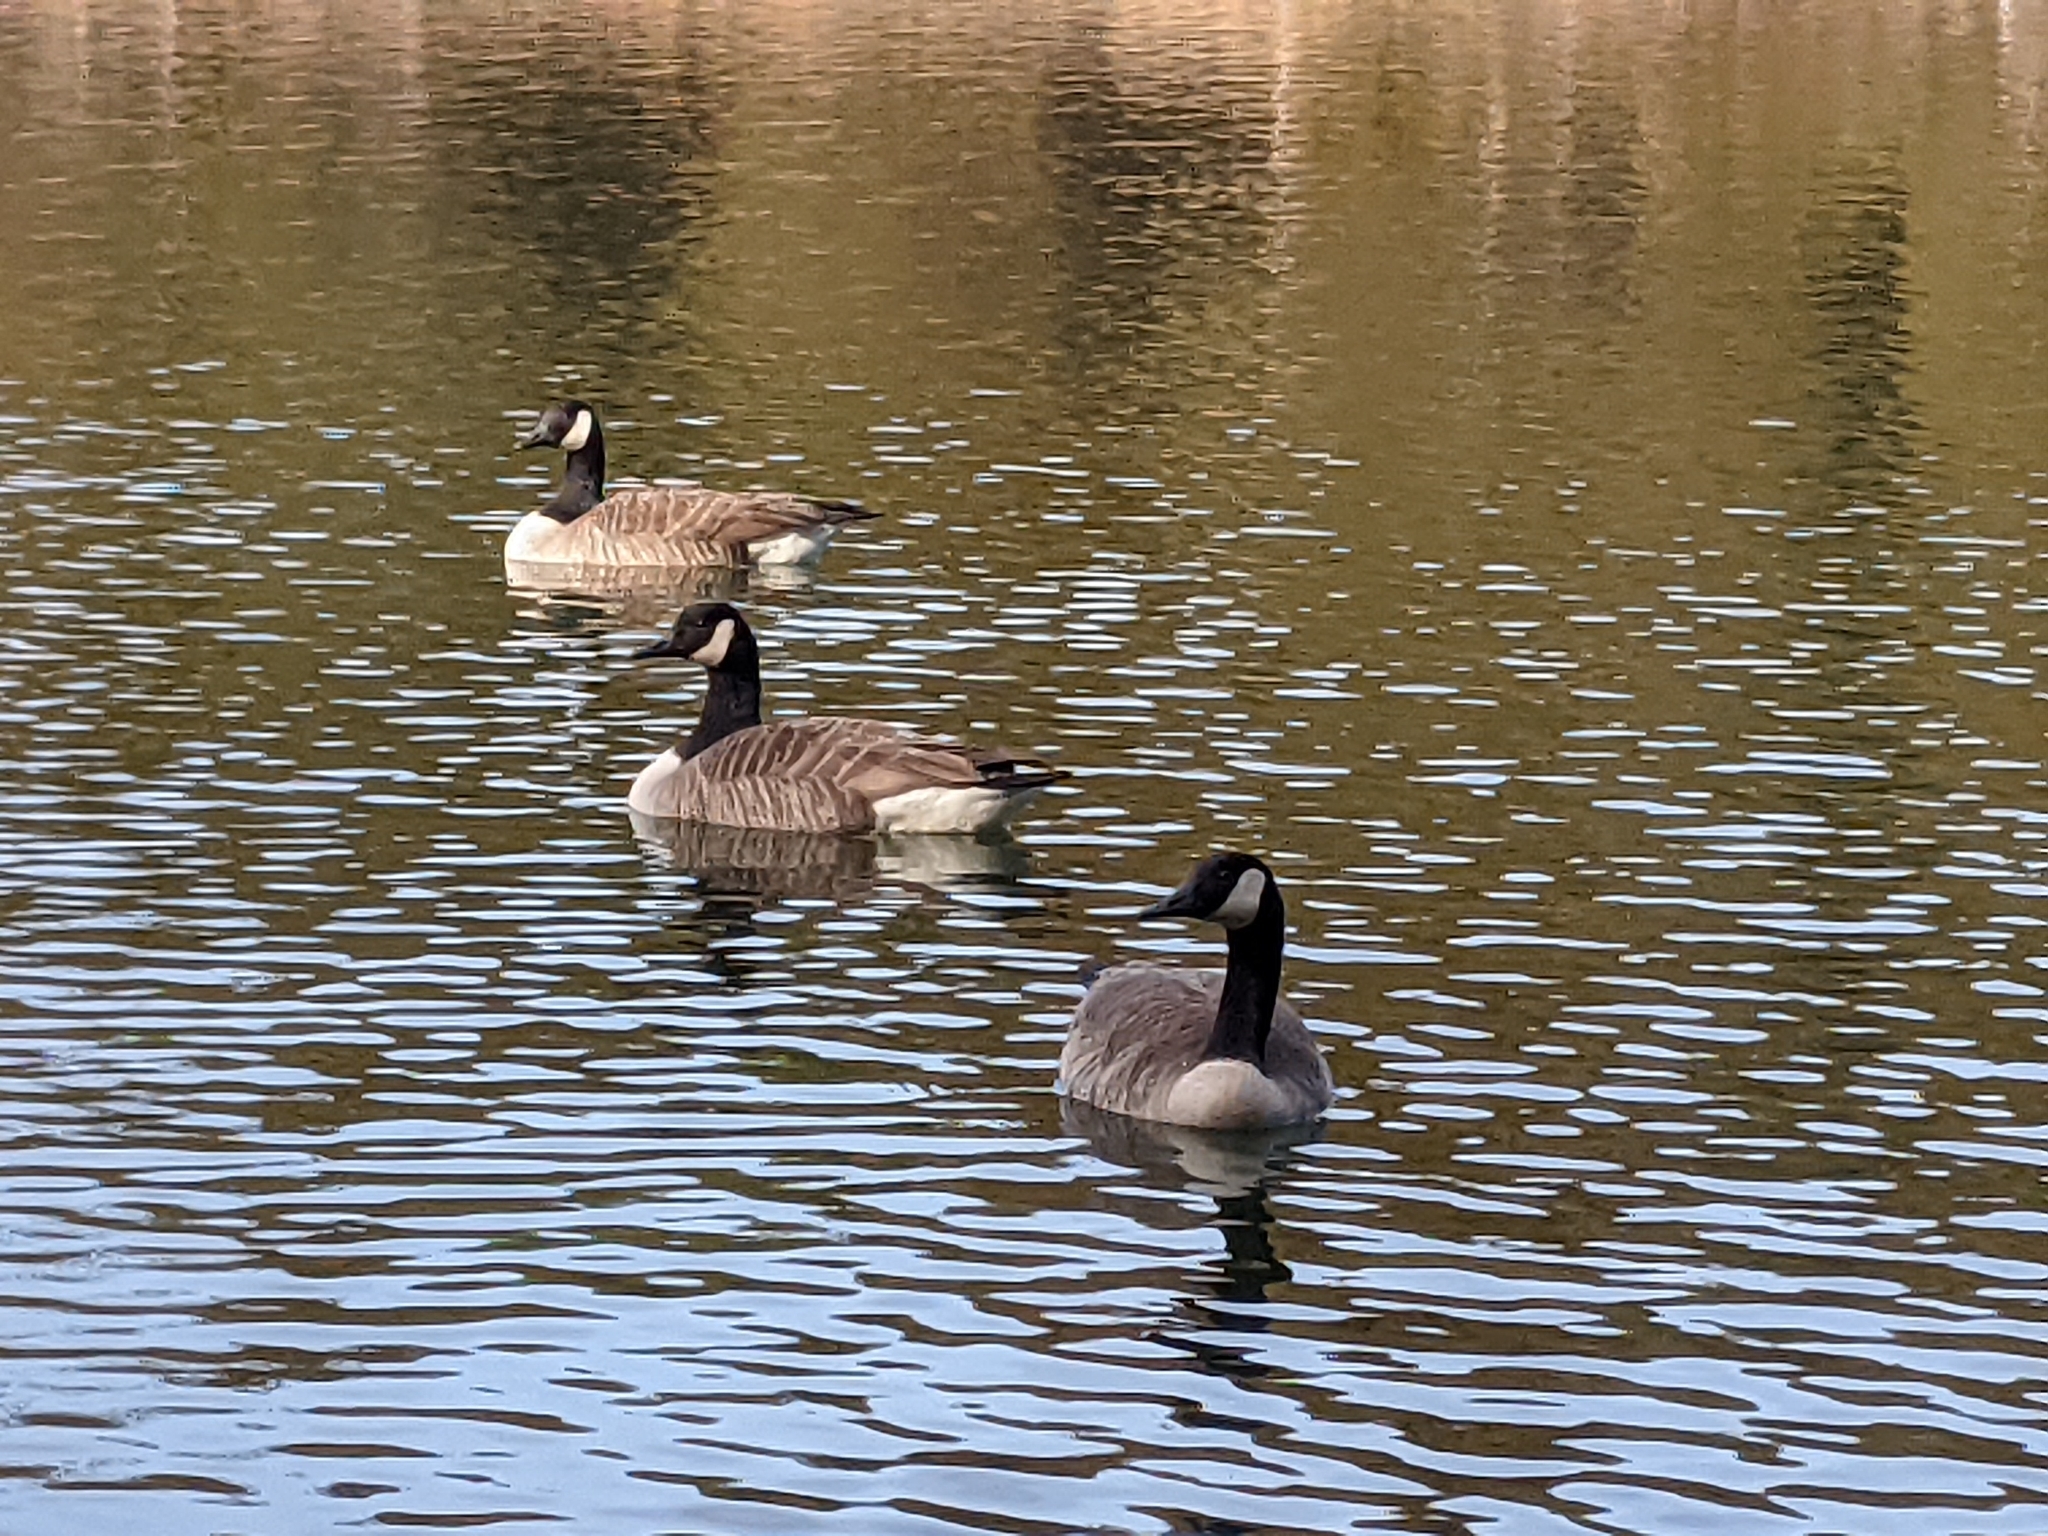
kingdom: Animalia
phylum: Chordata
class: Aves
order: Anseriformes
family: Anatidae
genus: Branta
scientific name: Branta canadensis
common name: Canada goose
